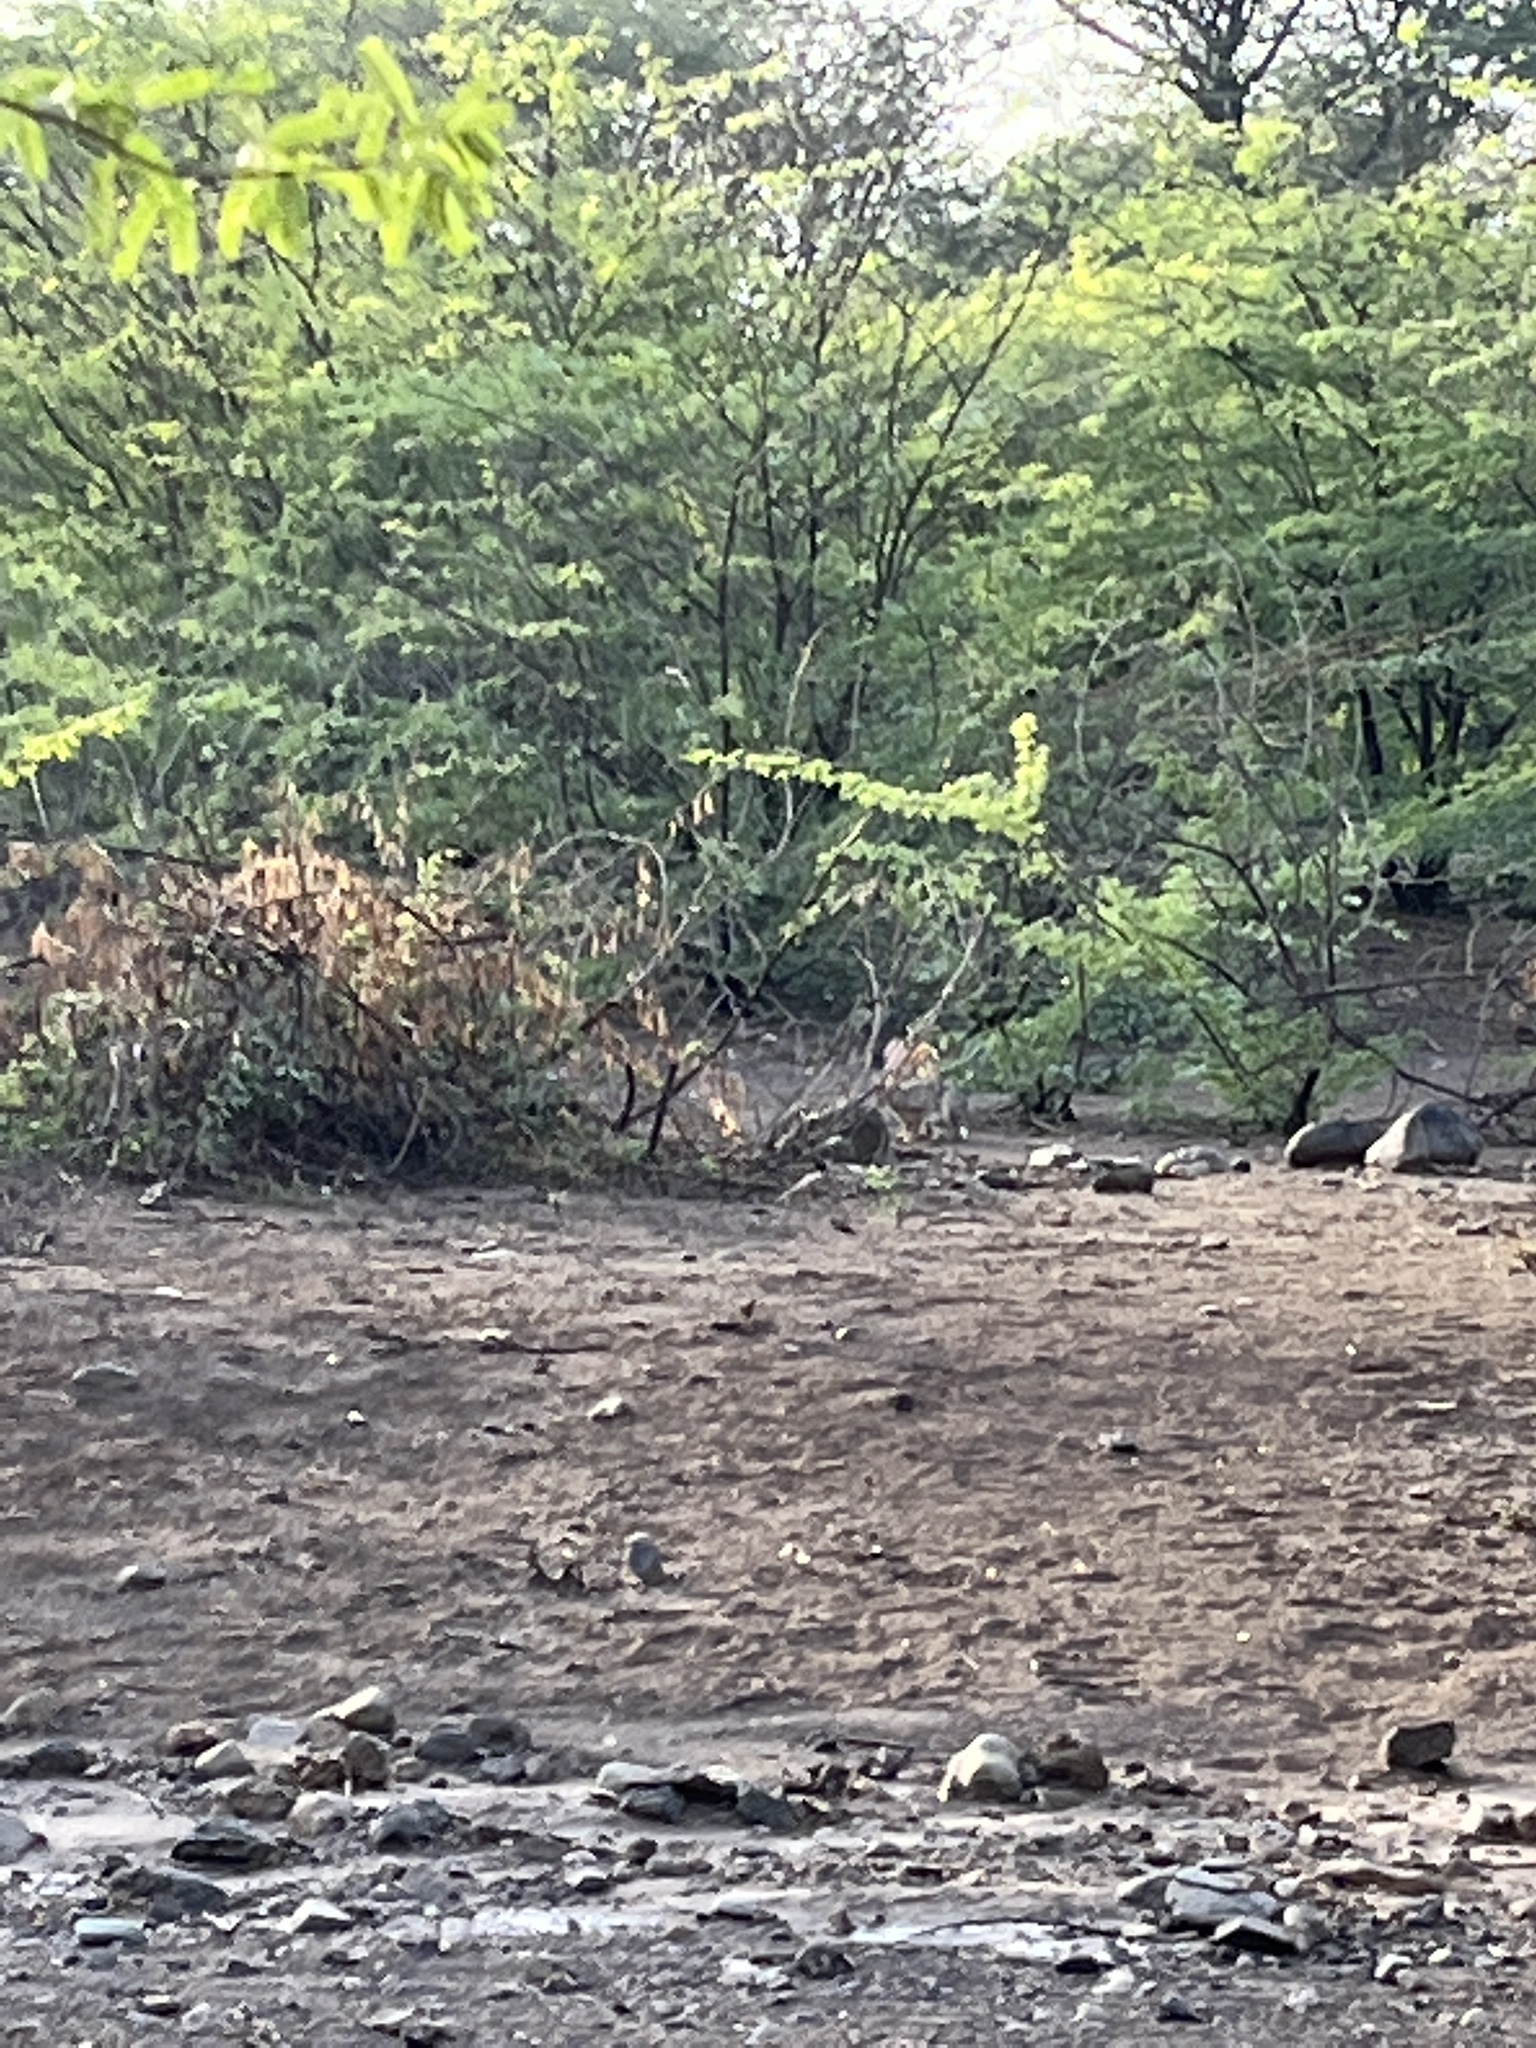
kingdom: Animalia
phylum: Chordata
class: Mammalia
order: Lagomorpha
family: Leporidae
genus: Lepus
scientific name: Lepus capensis
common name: Cape hare
